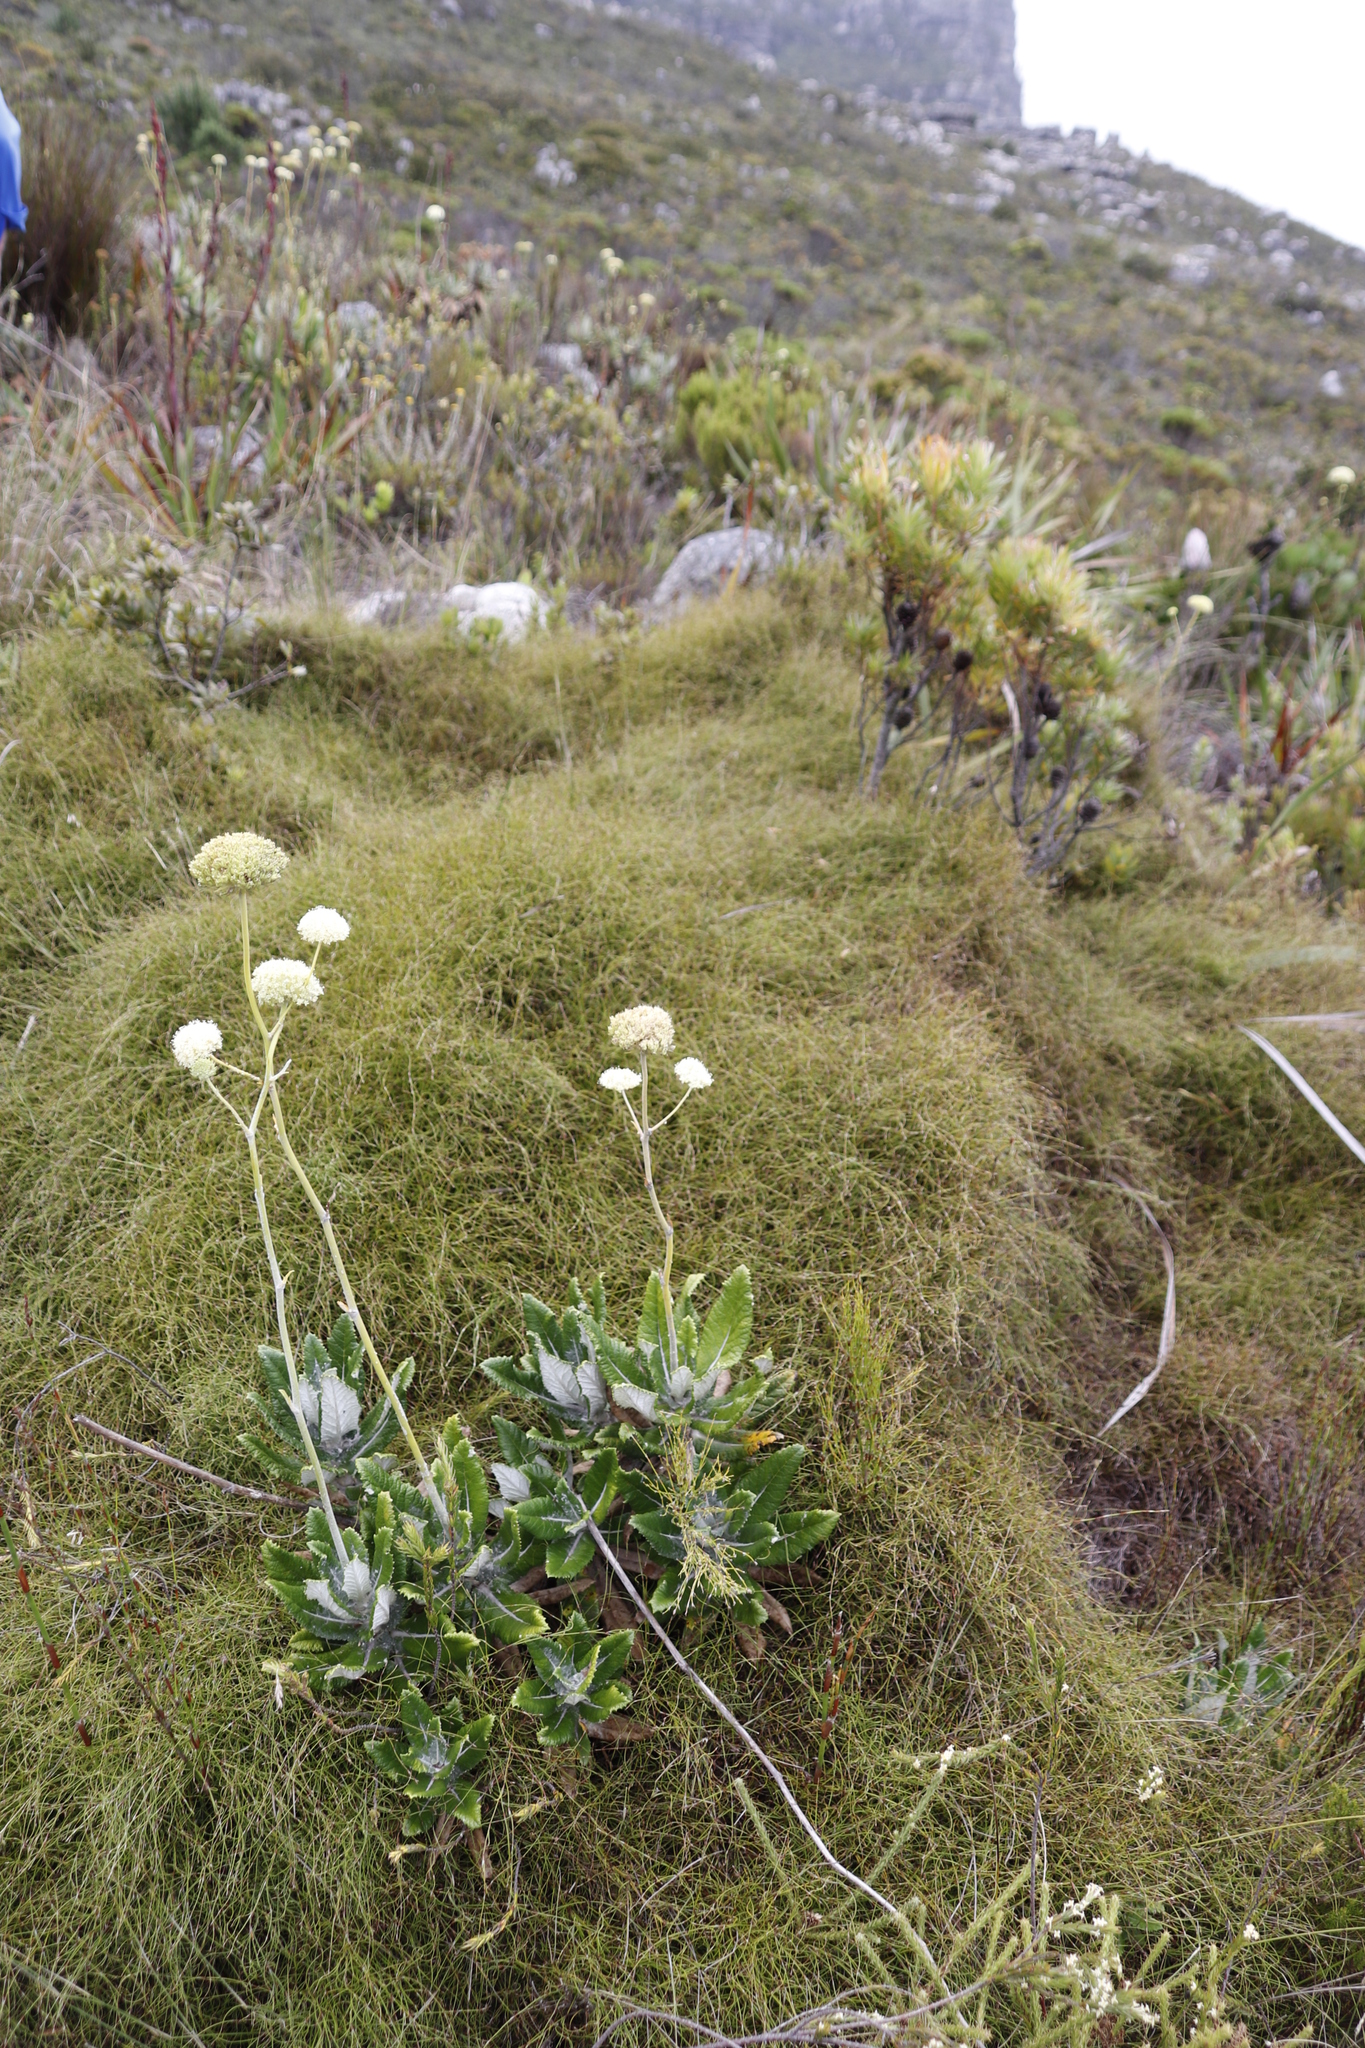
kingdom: Plantae
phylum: Tracheophyta
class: Magnoliopsida
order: Apiales
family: Apiaceae
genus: Hermas
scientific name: Hermas villosa
